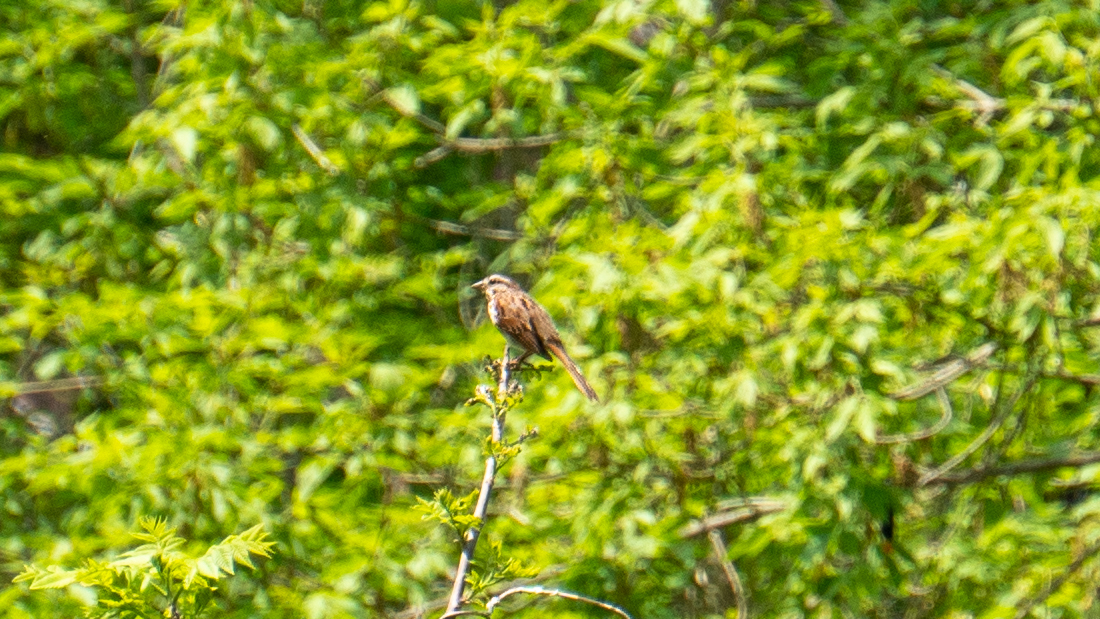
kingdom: Animalia
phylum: Chordata
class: Aves
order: Passeriformes
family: Passerellidae
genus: Melospiza
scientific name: Melospiza melodia
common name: Song sparrow
